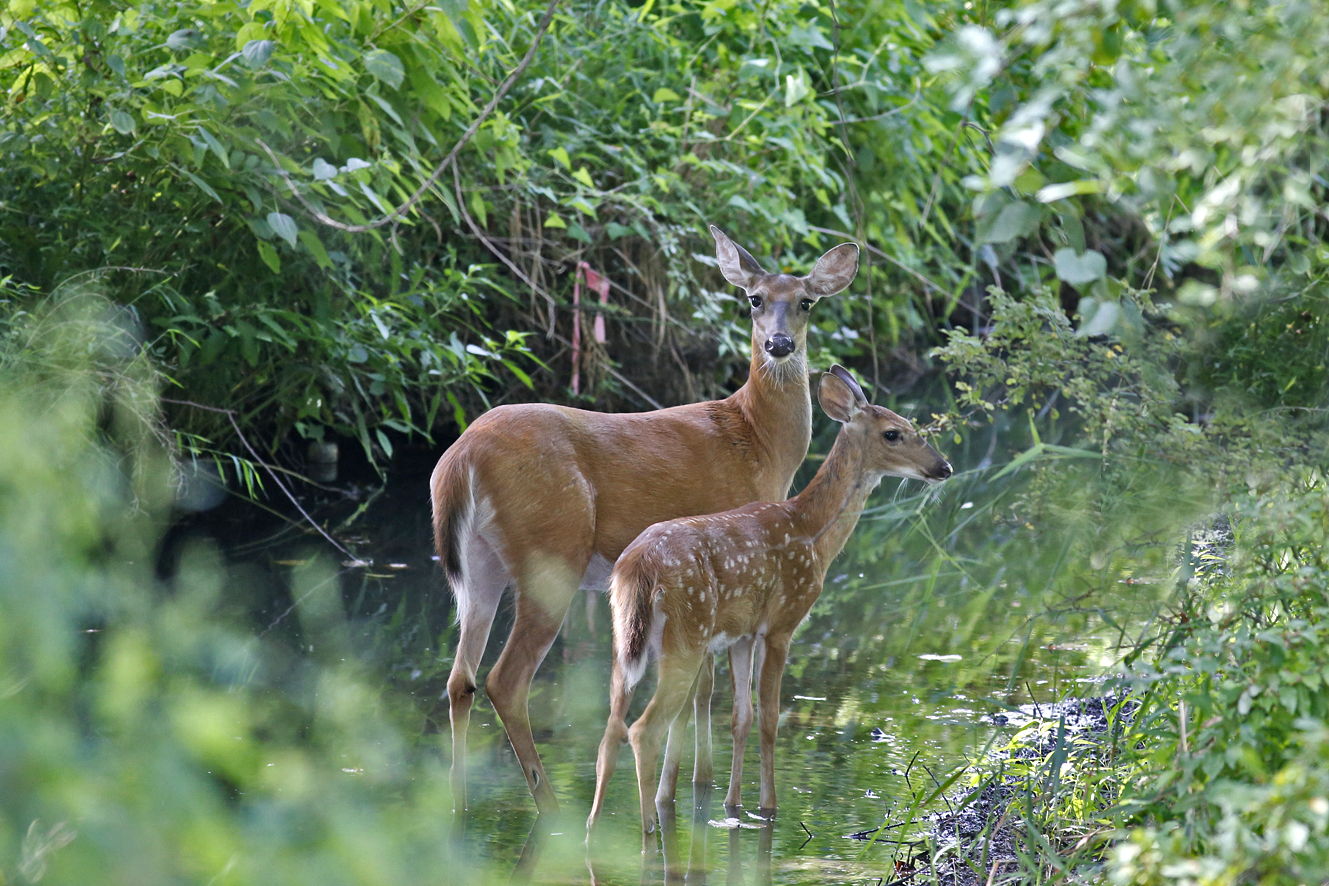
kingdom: Animalia
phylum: Chordata
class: Mammalia
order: Artiodactyla
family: Cervidae
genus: Odocoileus
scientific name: Odocoileus virginianus
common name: White-tailed deer
